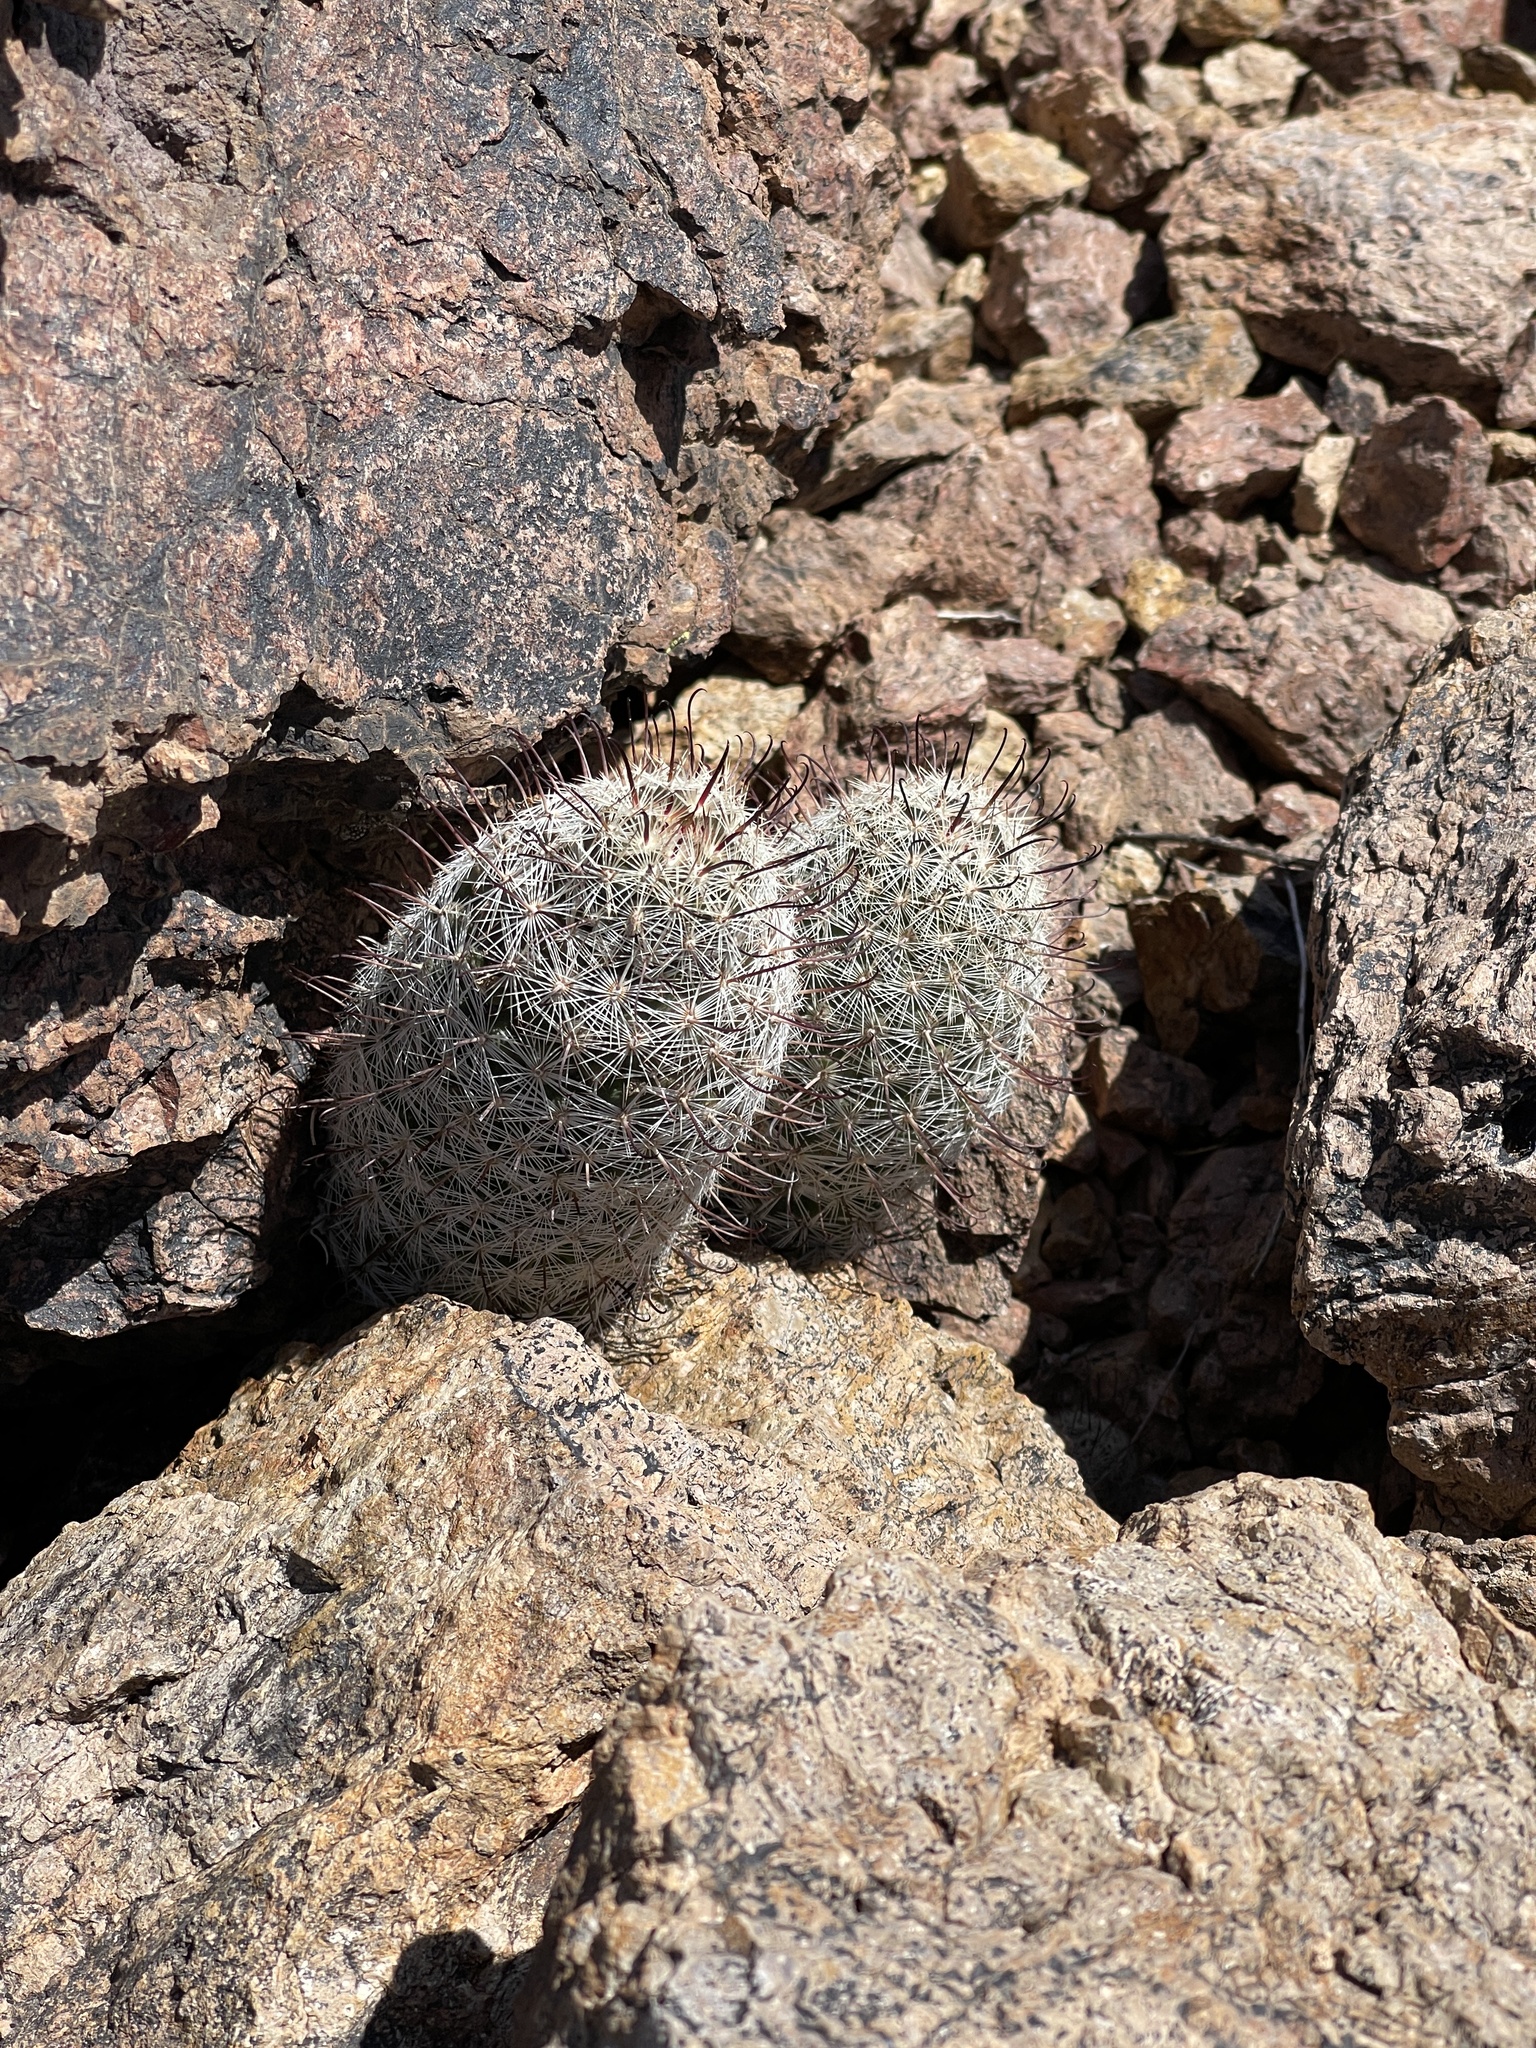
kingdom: Plantae
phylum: Tracheophyta
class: Magnoliopsida
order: Caryophyllales
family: Cactaceae
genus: Cochemiea
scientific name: Cochemiea grahamii
